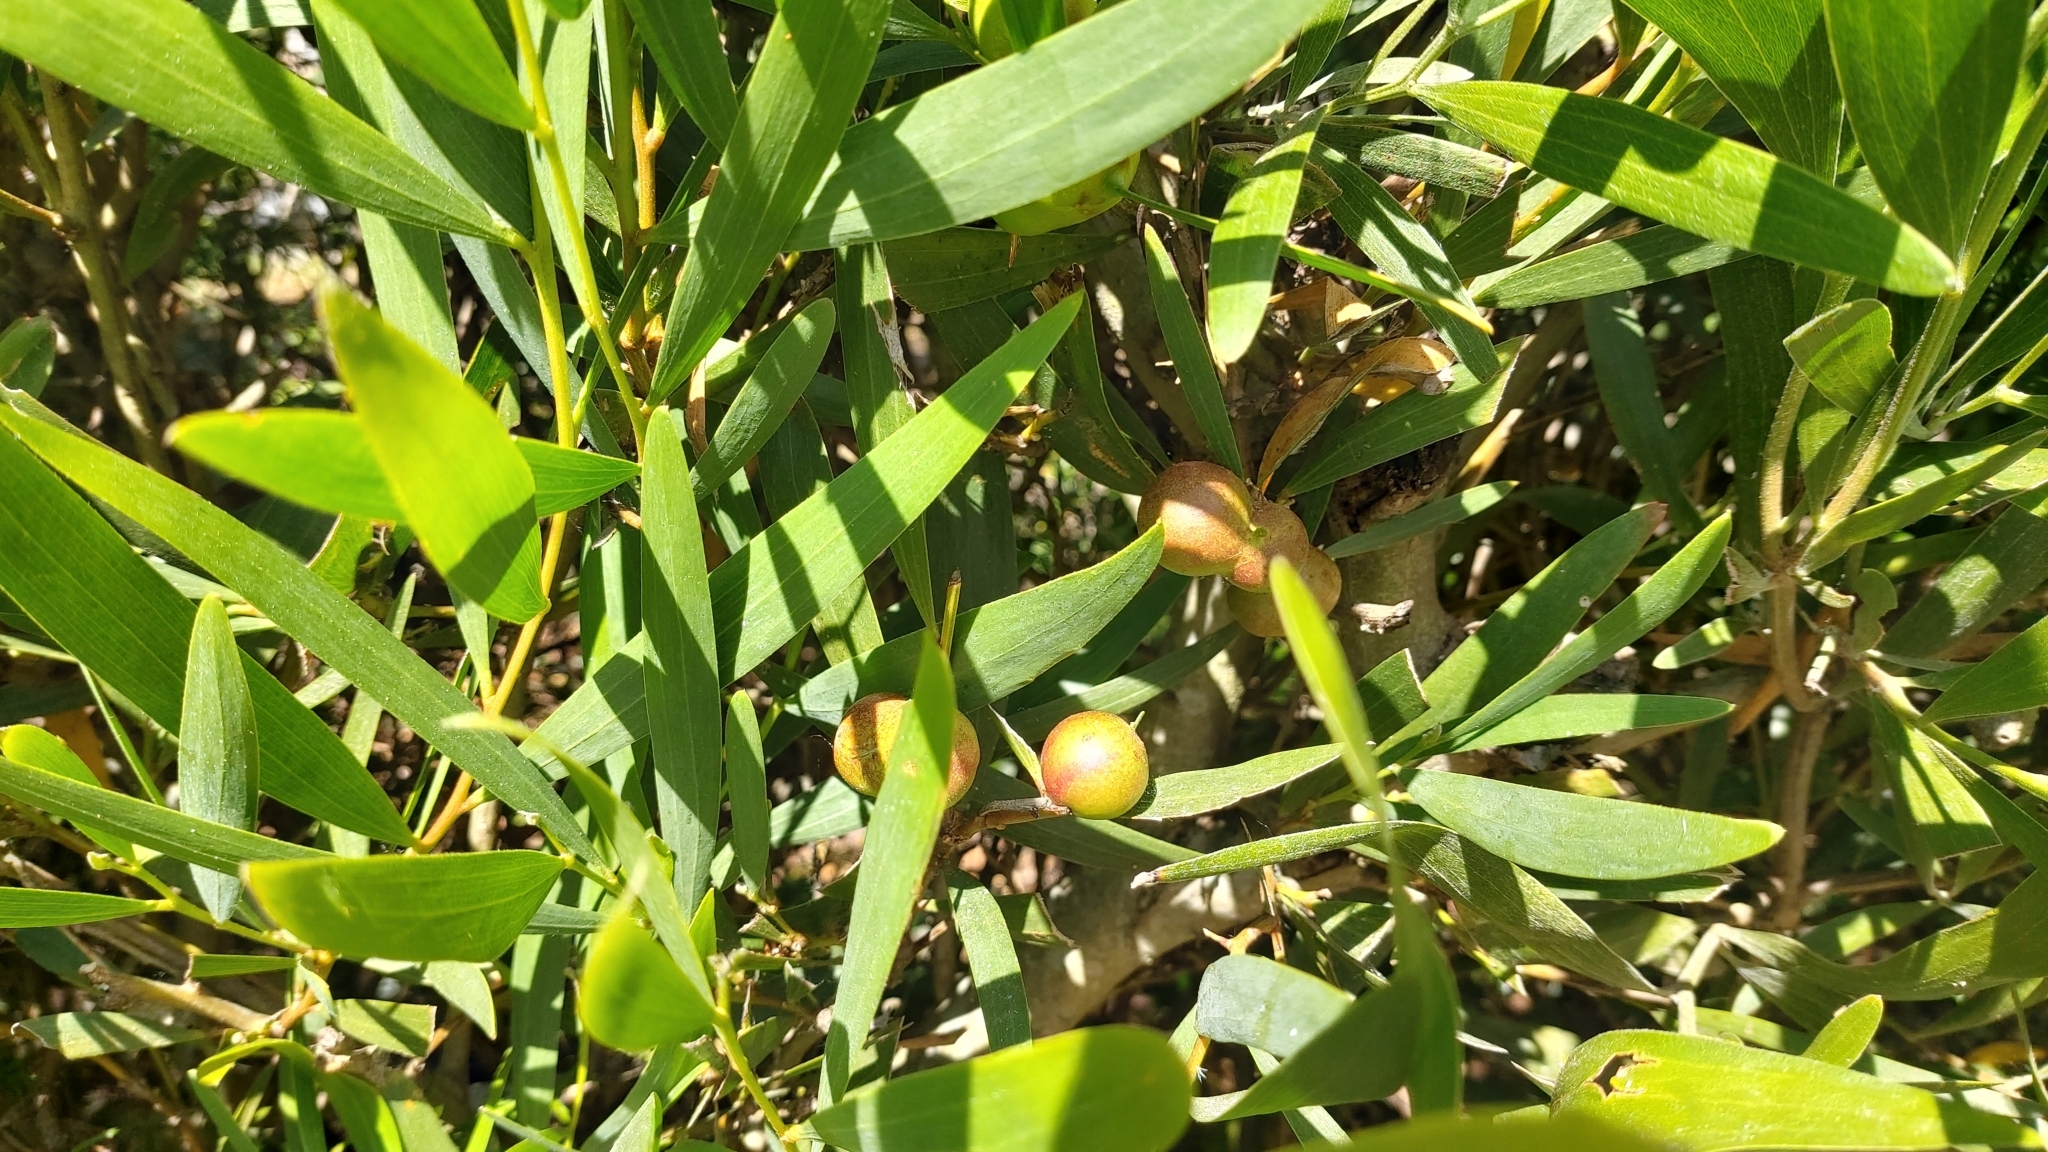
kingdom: Animalia
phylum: Arthropoda
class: Insecta
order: Hymenoptera
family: Pteromalidae
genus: Trichilogaster
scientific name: Trichilogaster acaciaelongifoliae
